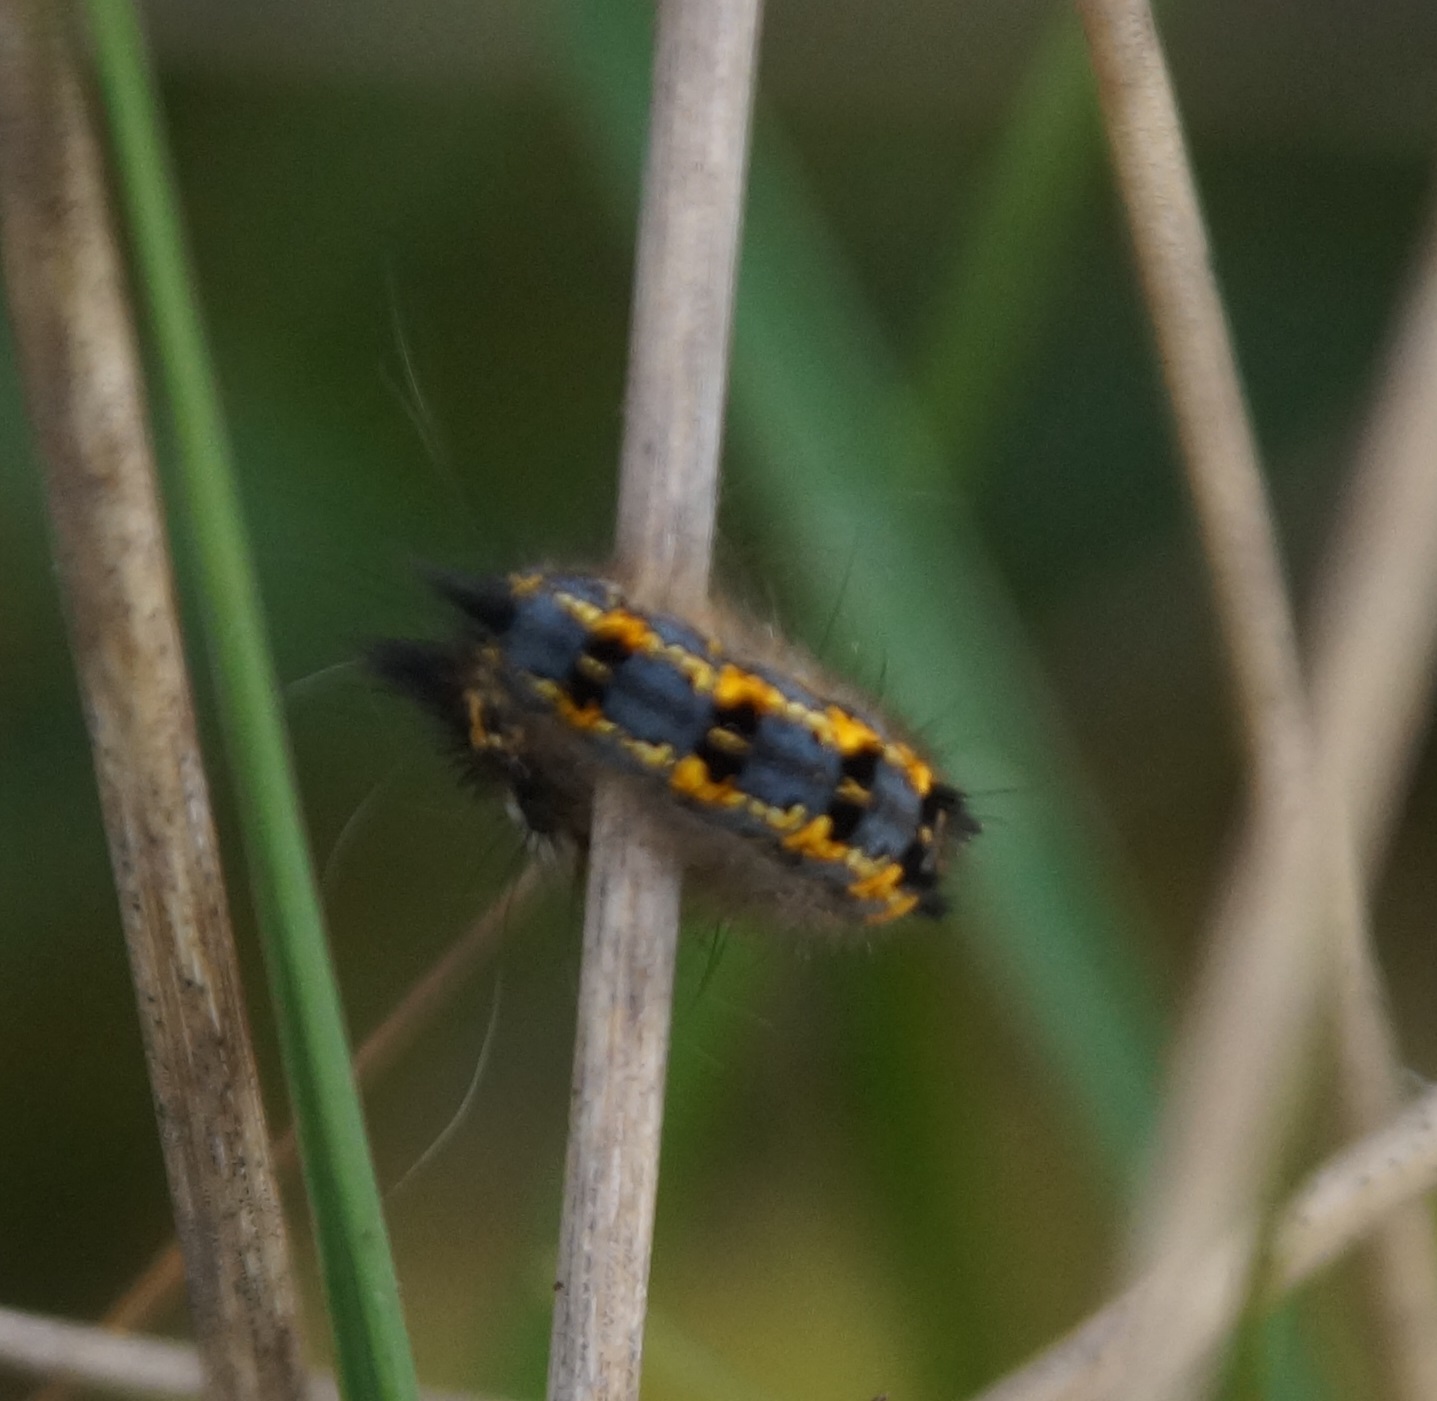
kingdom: Animalia
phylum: Arthropoda
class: Insecta
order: Lepidoptera
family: Lasiocampidae
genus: Euthrix
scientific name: Euthrix potatoria
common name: Drinker
